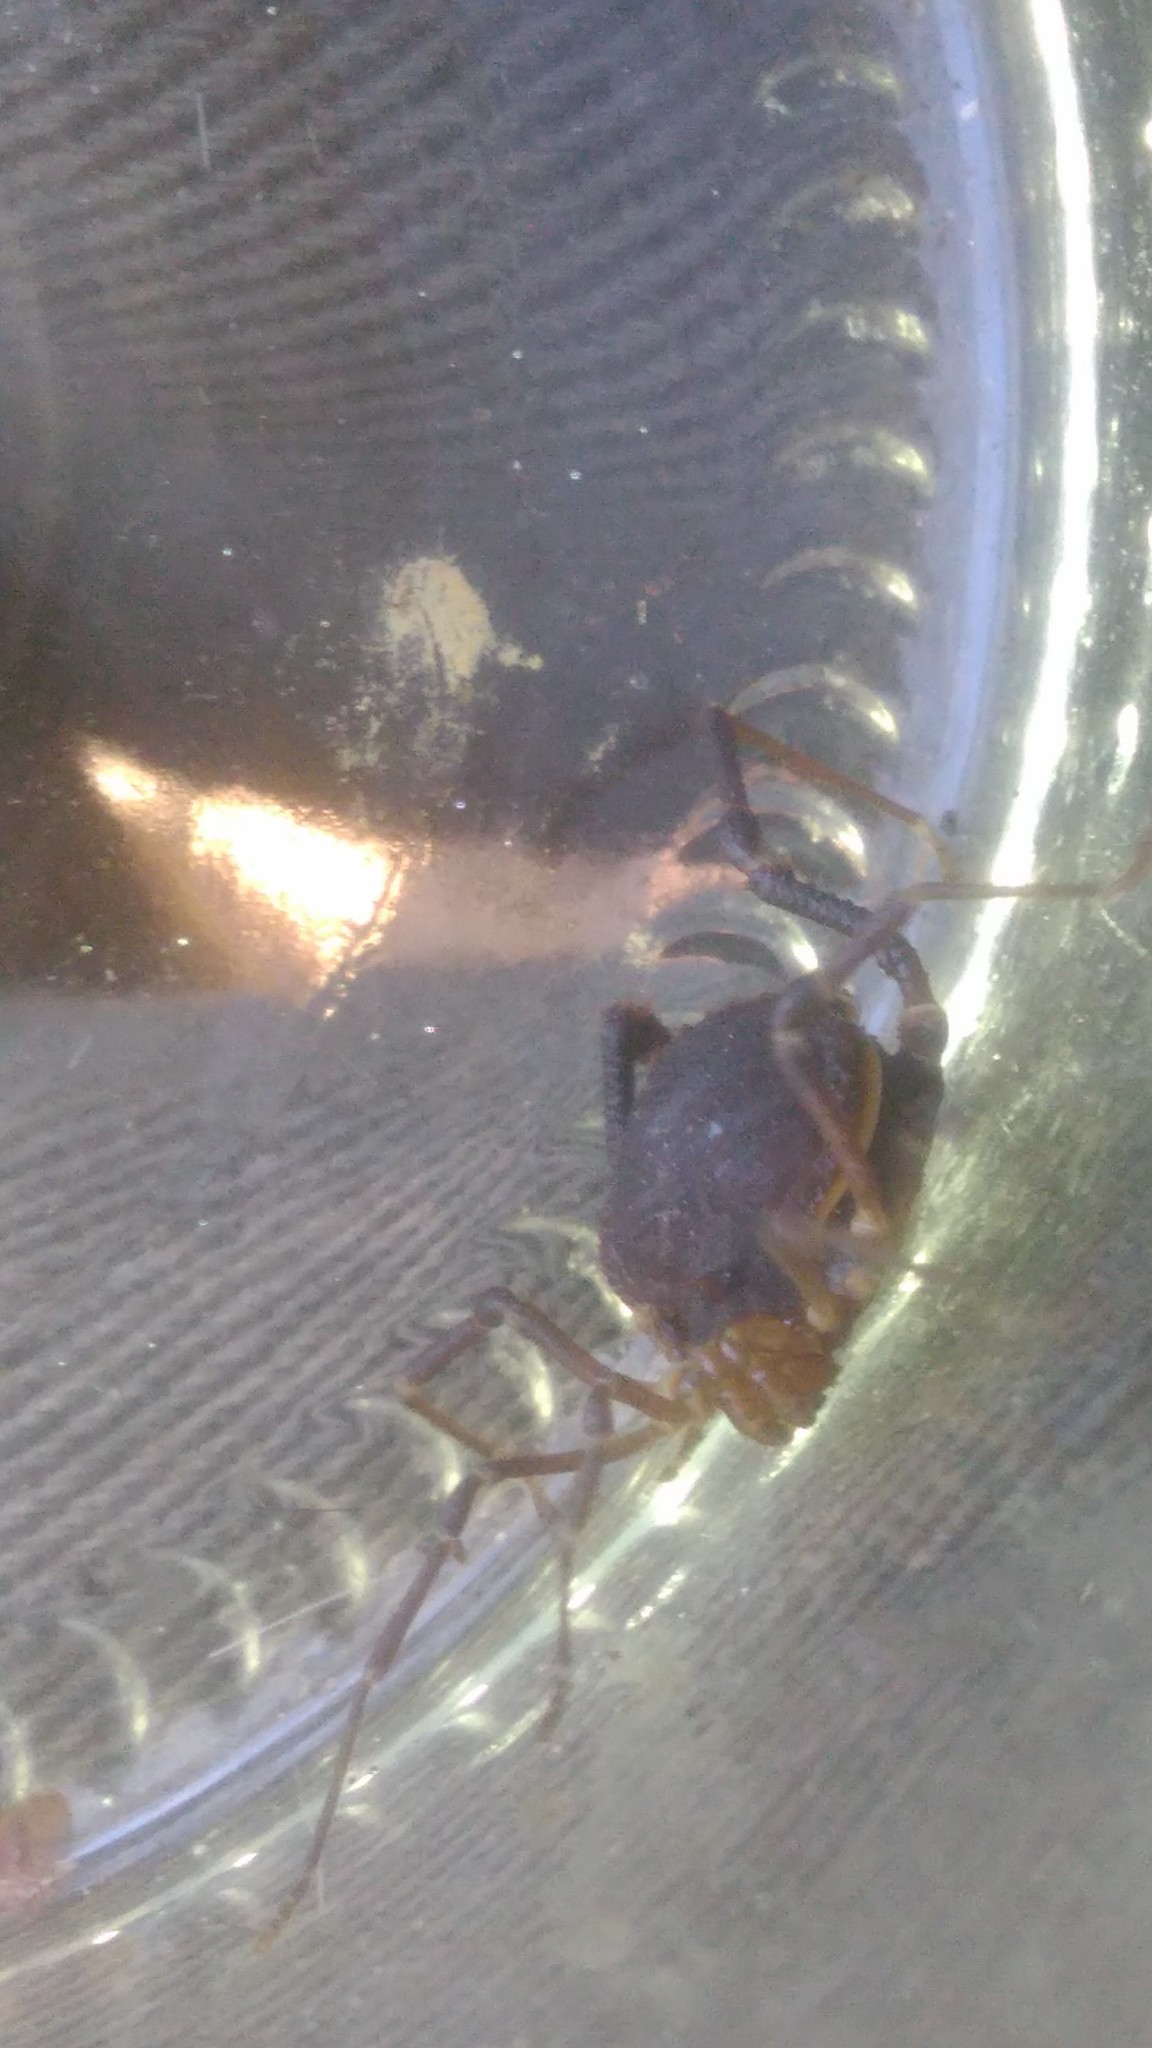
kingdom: Animalia
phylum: Arthropoda
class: Arachnida
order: Opiliones
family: Gonyleptidae
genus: Acanthopachylus
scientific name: Acanthopachylus robustus
